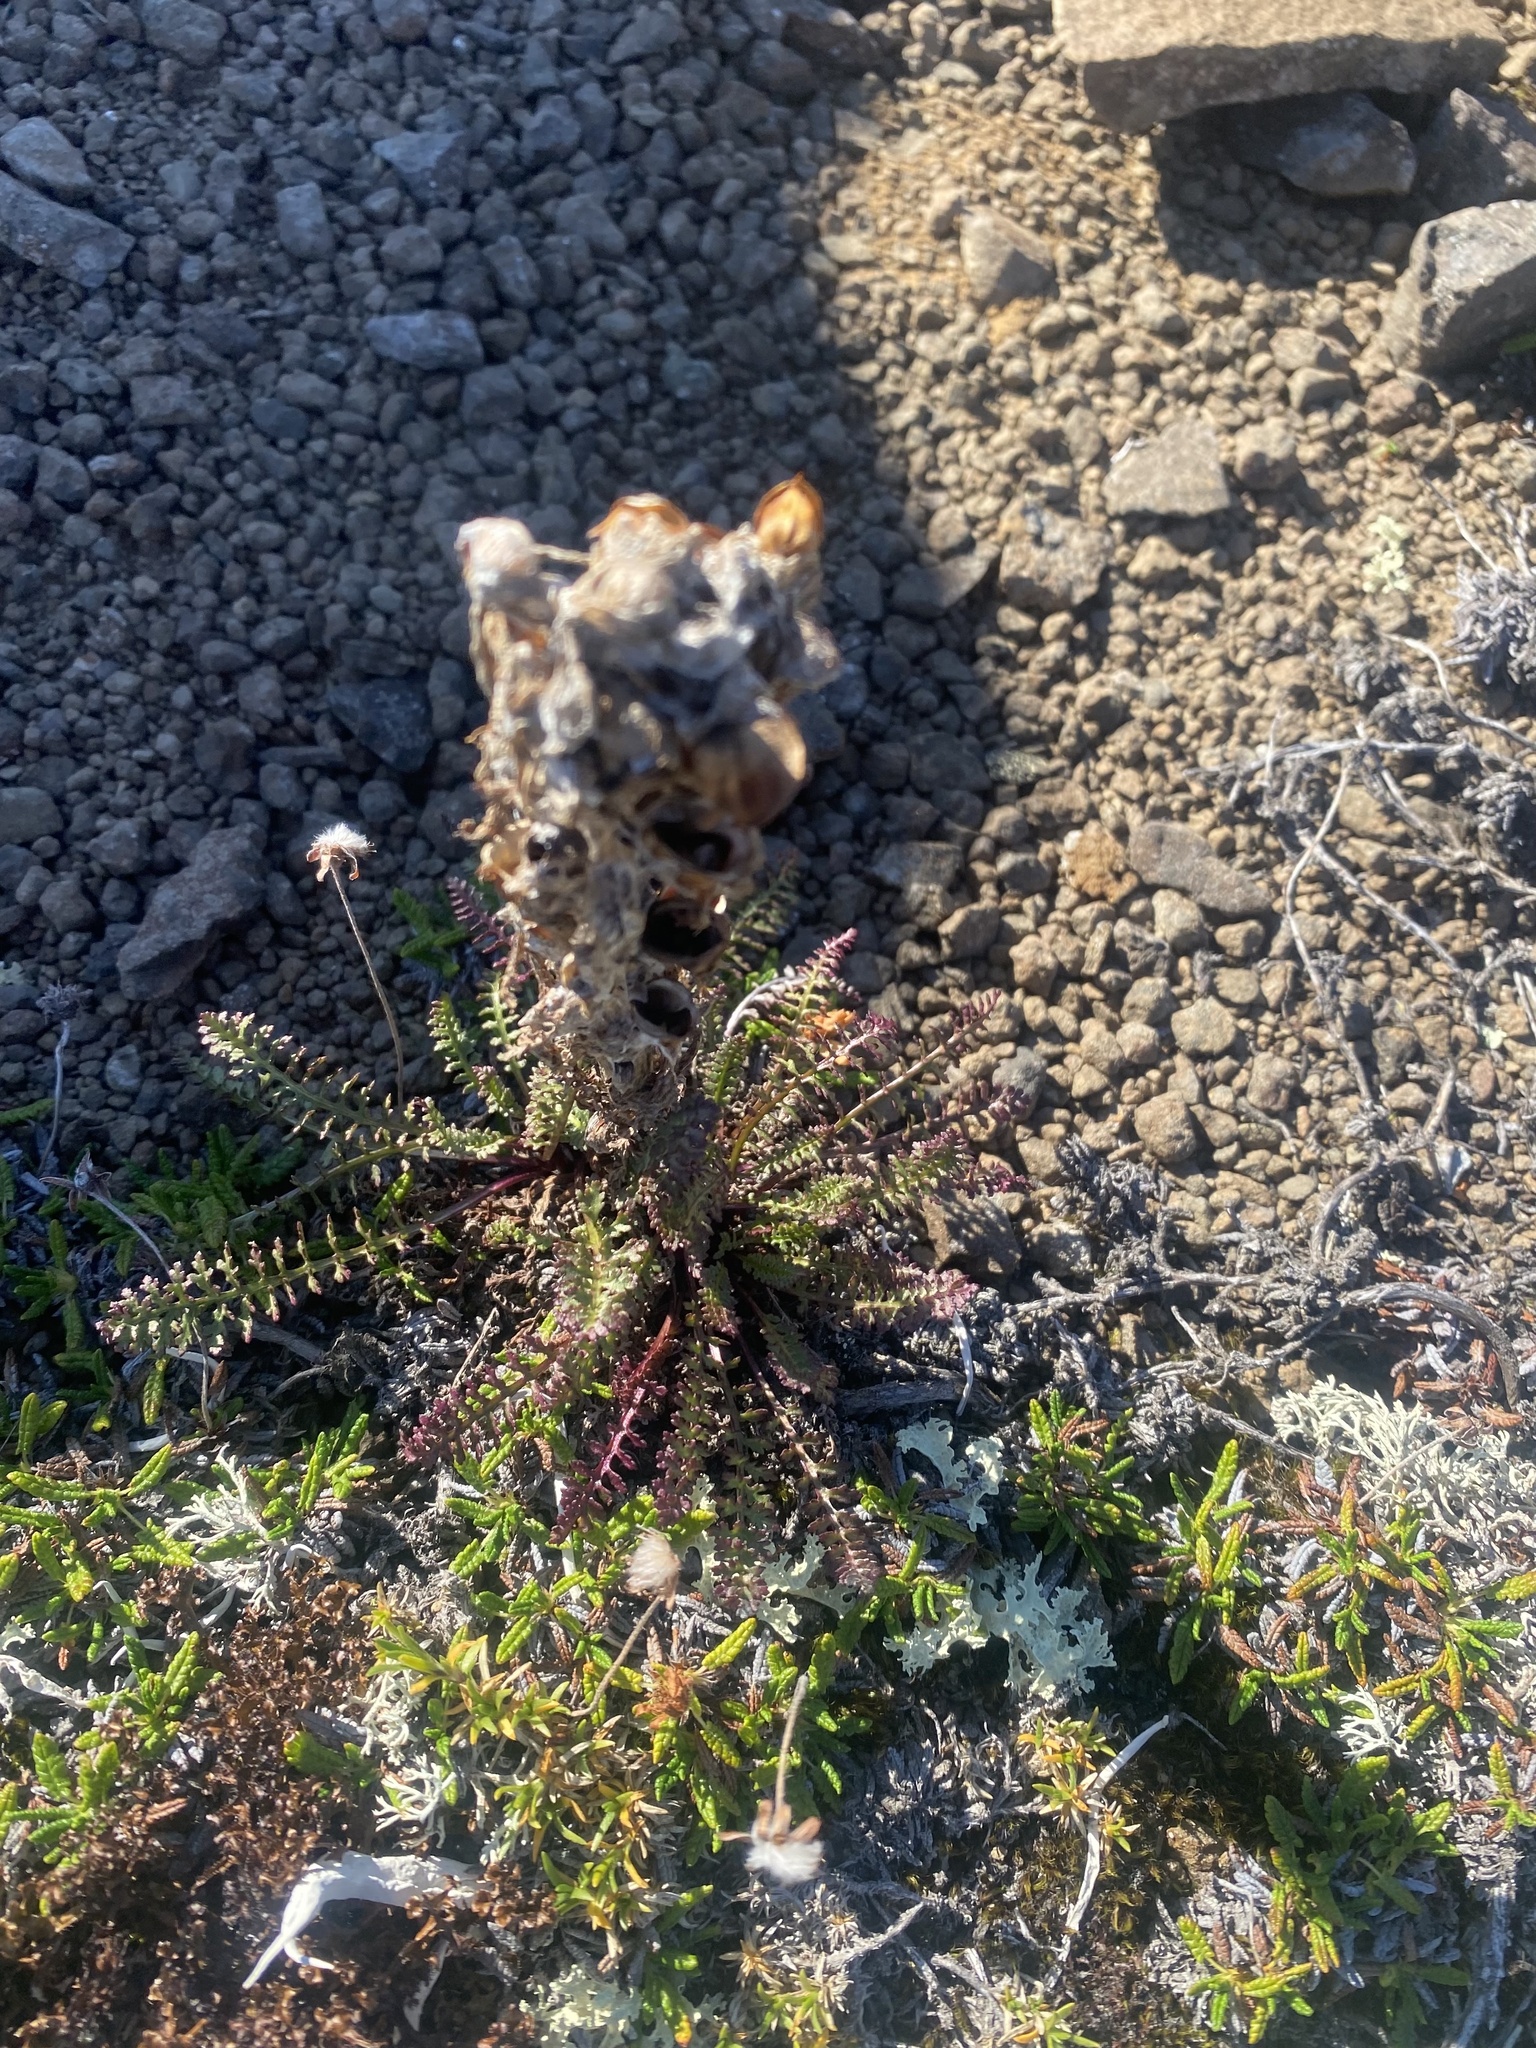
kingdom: Plantae
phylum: Tracheophyta
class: Magnoliopsida
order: Lamiales
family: Orobanchaceae
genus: Pedicularis
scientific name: Pedicularis alopecuroides
